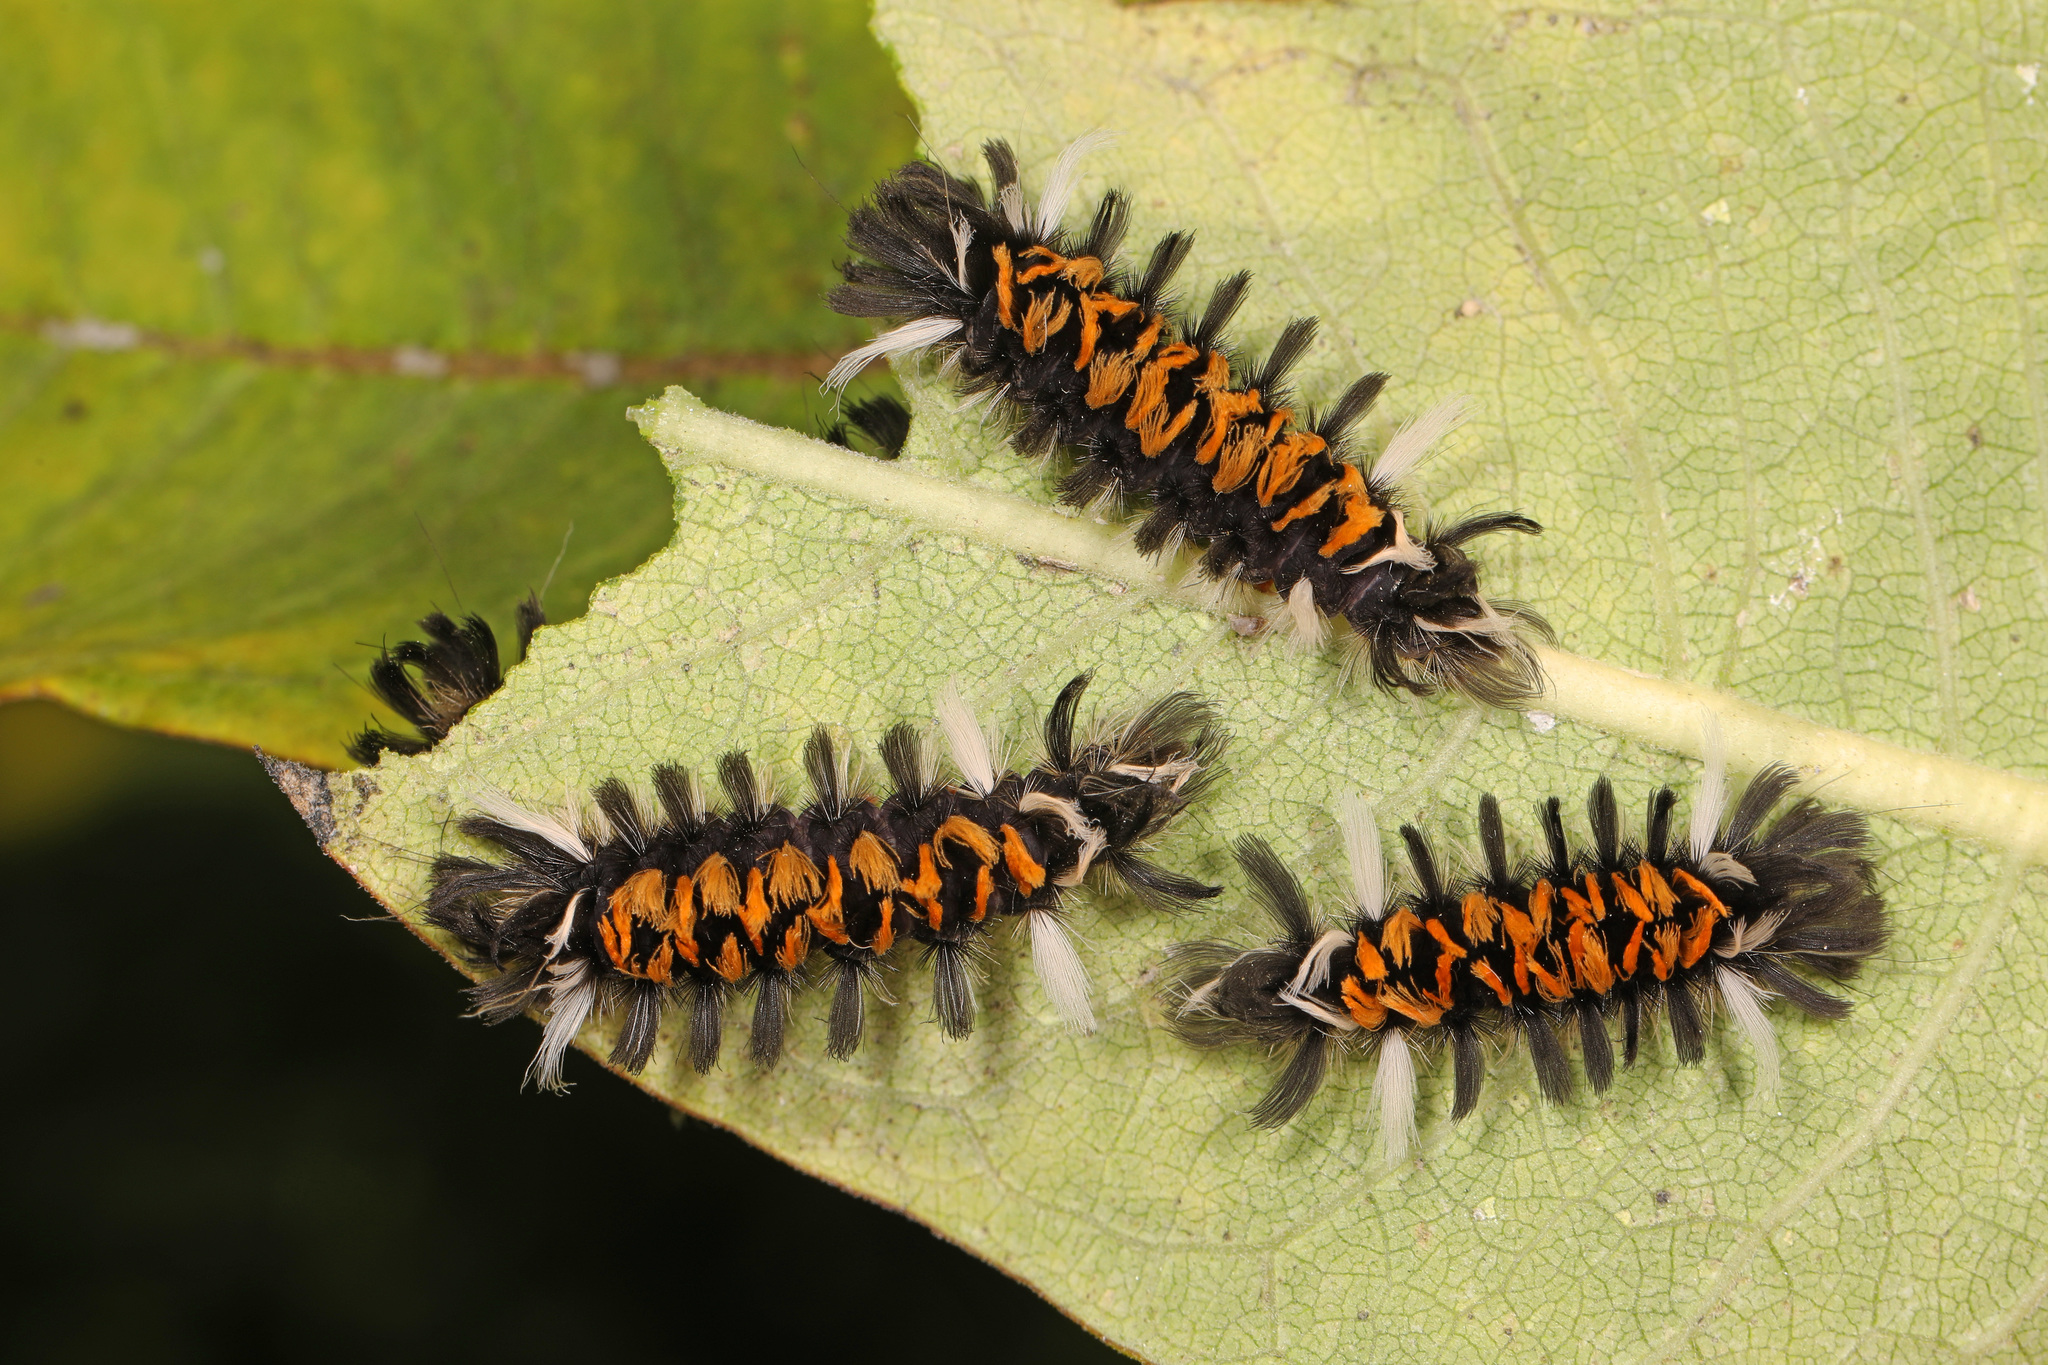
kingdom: Animalia
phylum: Arthropoda
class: Insecta
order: Lepidoptera
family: Erebidae
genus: Euchaetes
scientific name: Euchaetes egle
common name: Milkweed tussock moth
